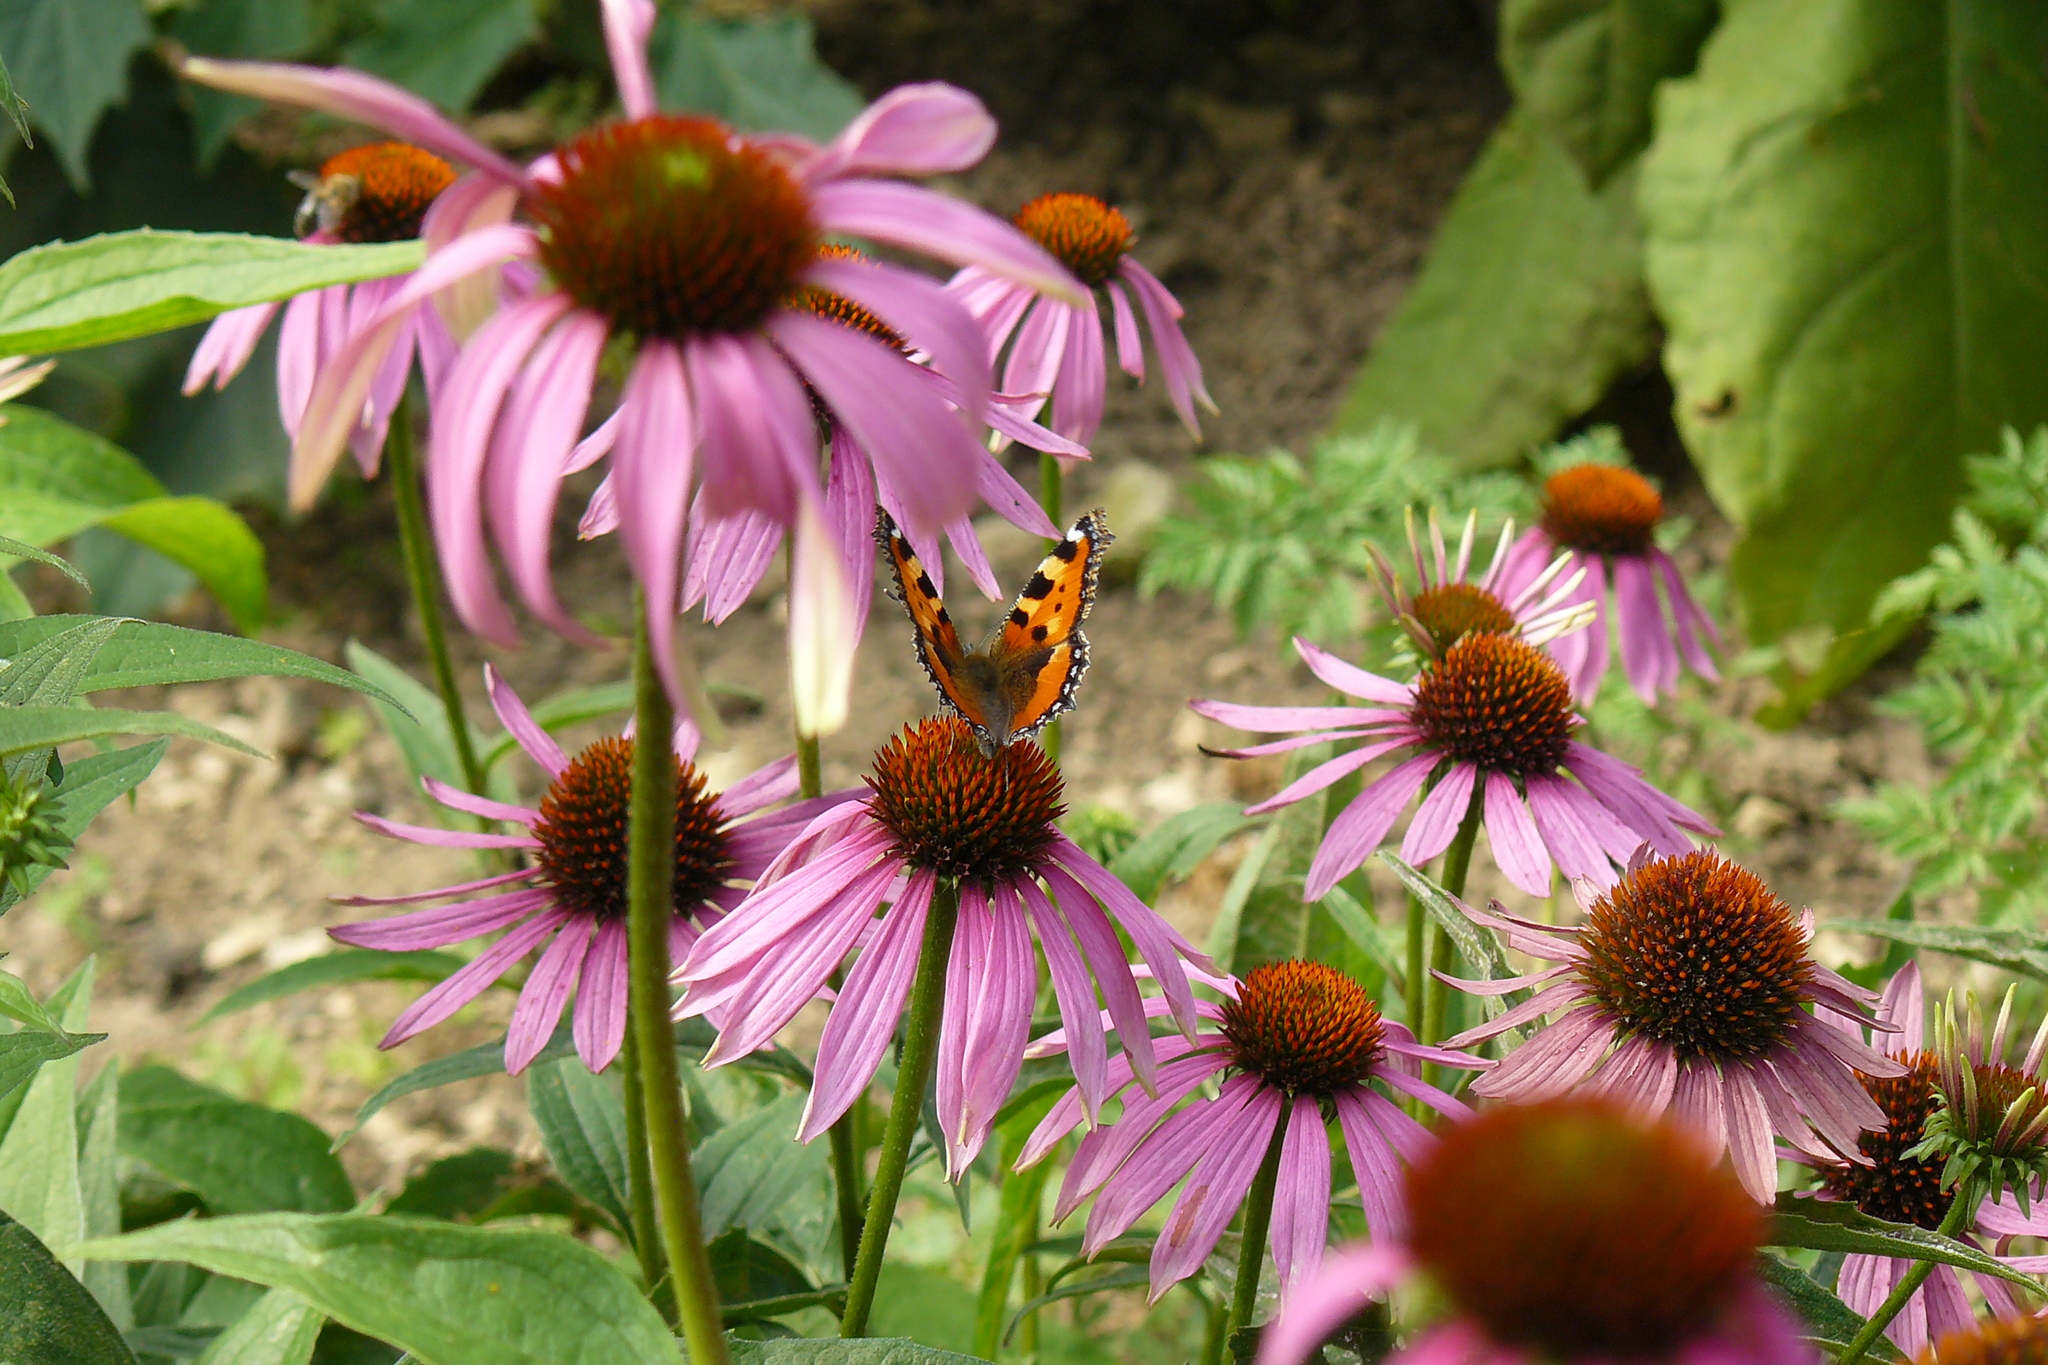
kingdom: Animalia
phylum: Arthropoda
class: Insecta
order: Lepidoptera
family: Nymphalidae
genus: Aglais
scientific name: Aglais urticae
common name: Small tortoiseshell
